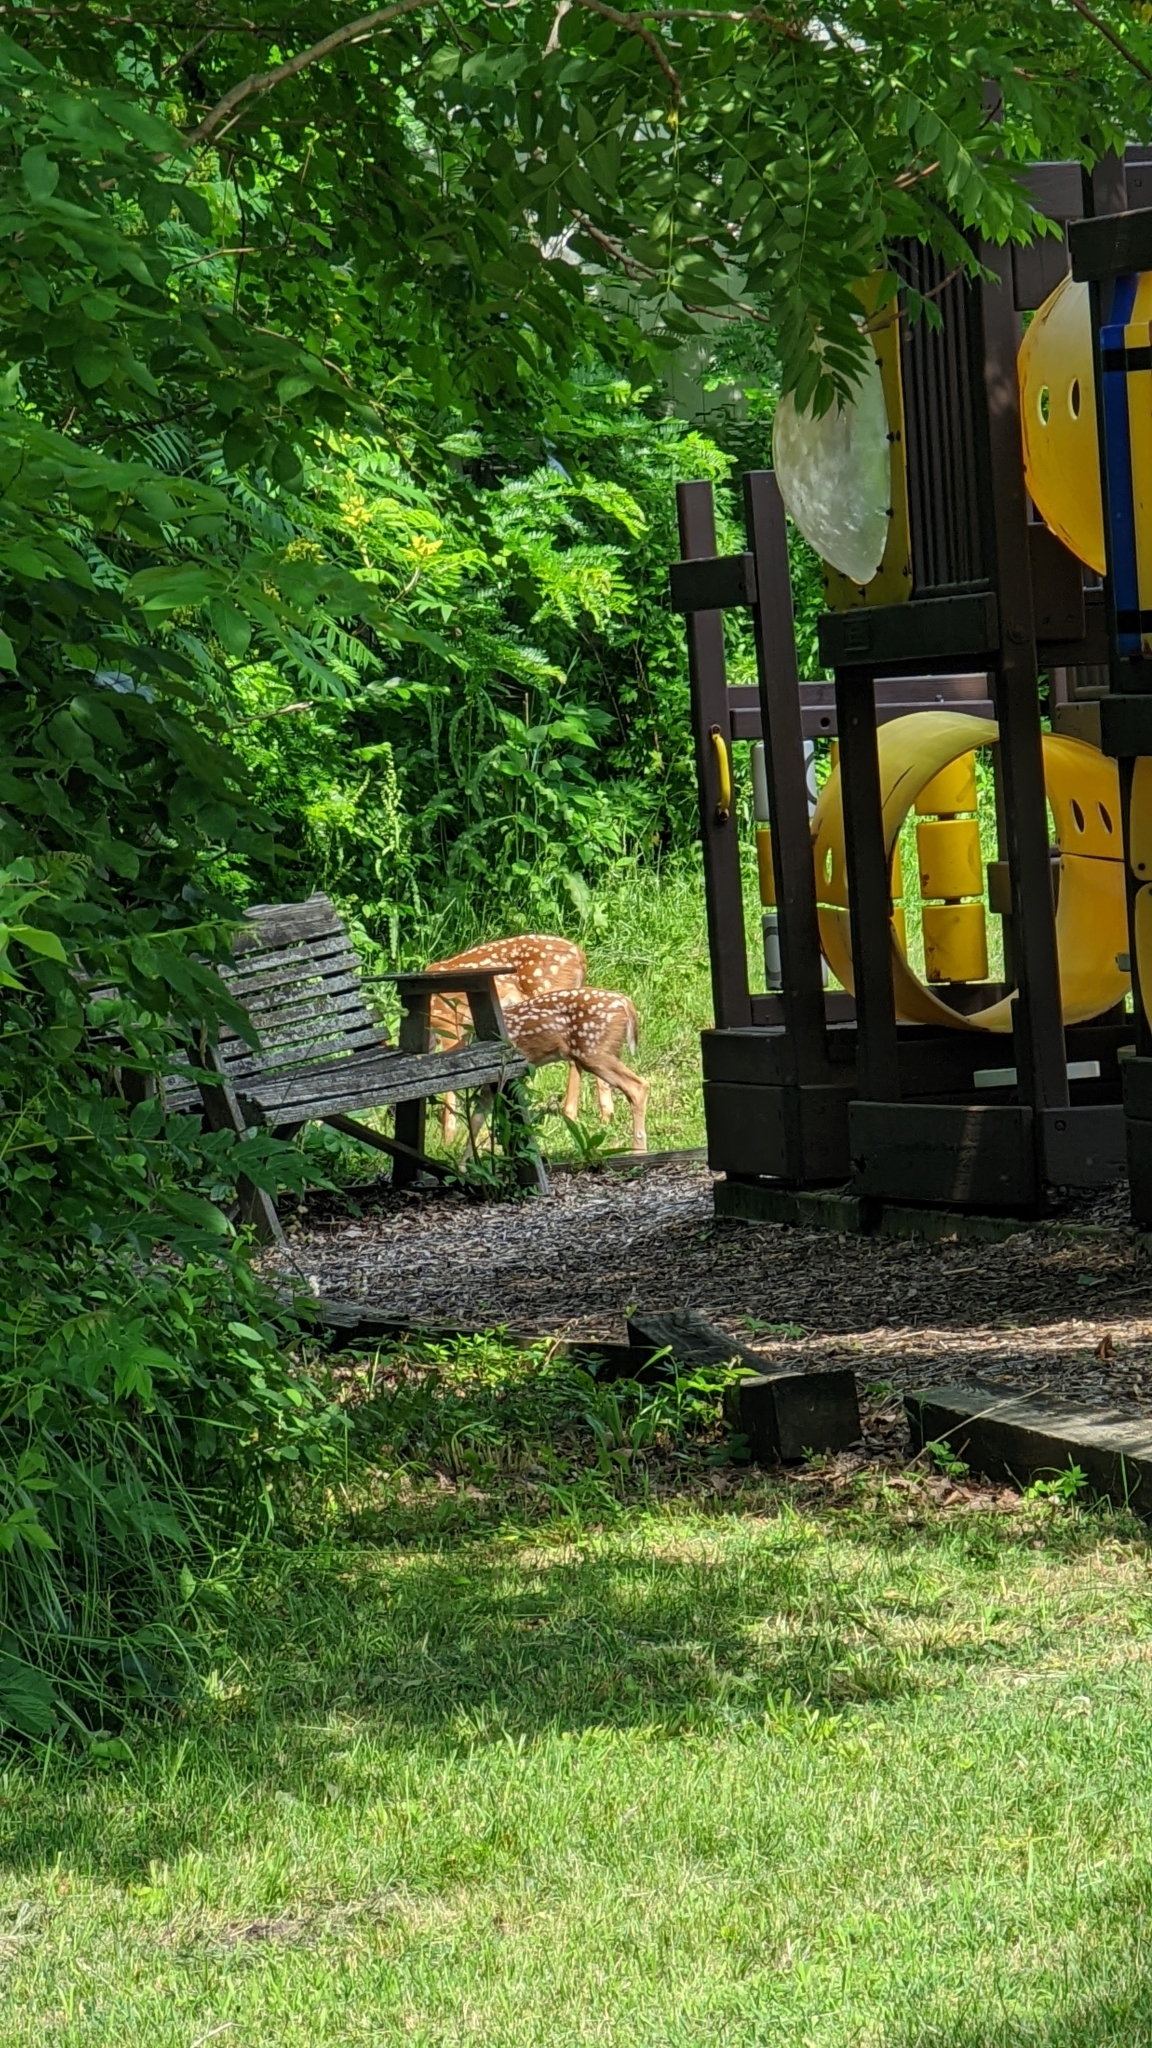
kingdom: Animalia
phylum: Chordata
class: Mammalia
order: Artiodactyla
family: Cervidae
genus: Odocoileus
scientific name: Odocoileus virginianus
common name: White-tailed deer
